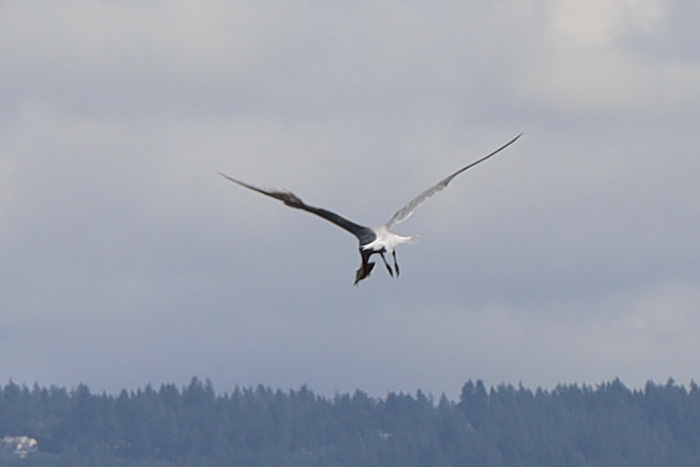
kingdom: Animalia
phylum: Chordata
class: Aves
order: Charadriiformes
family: Laridae
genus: Hydroprogne
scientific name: Hydroprogne caspia
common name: Caspian tern
